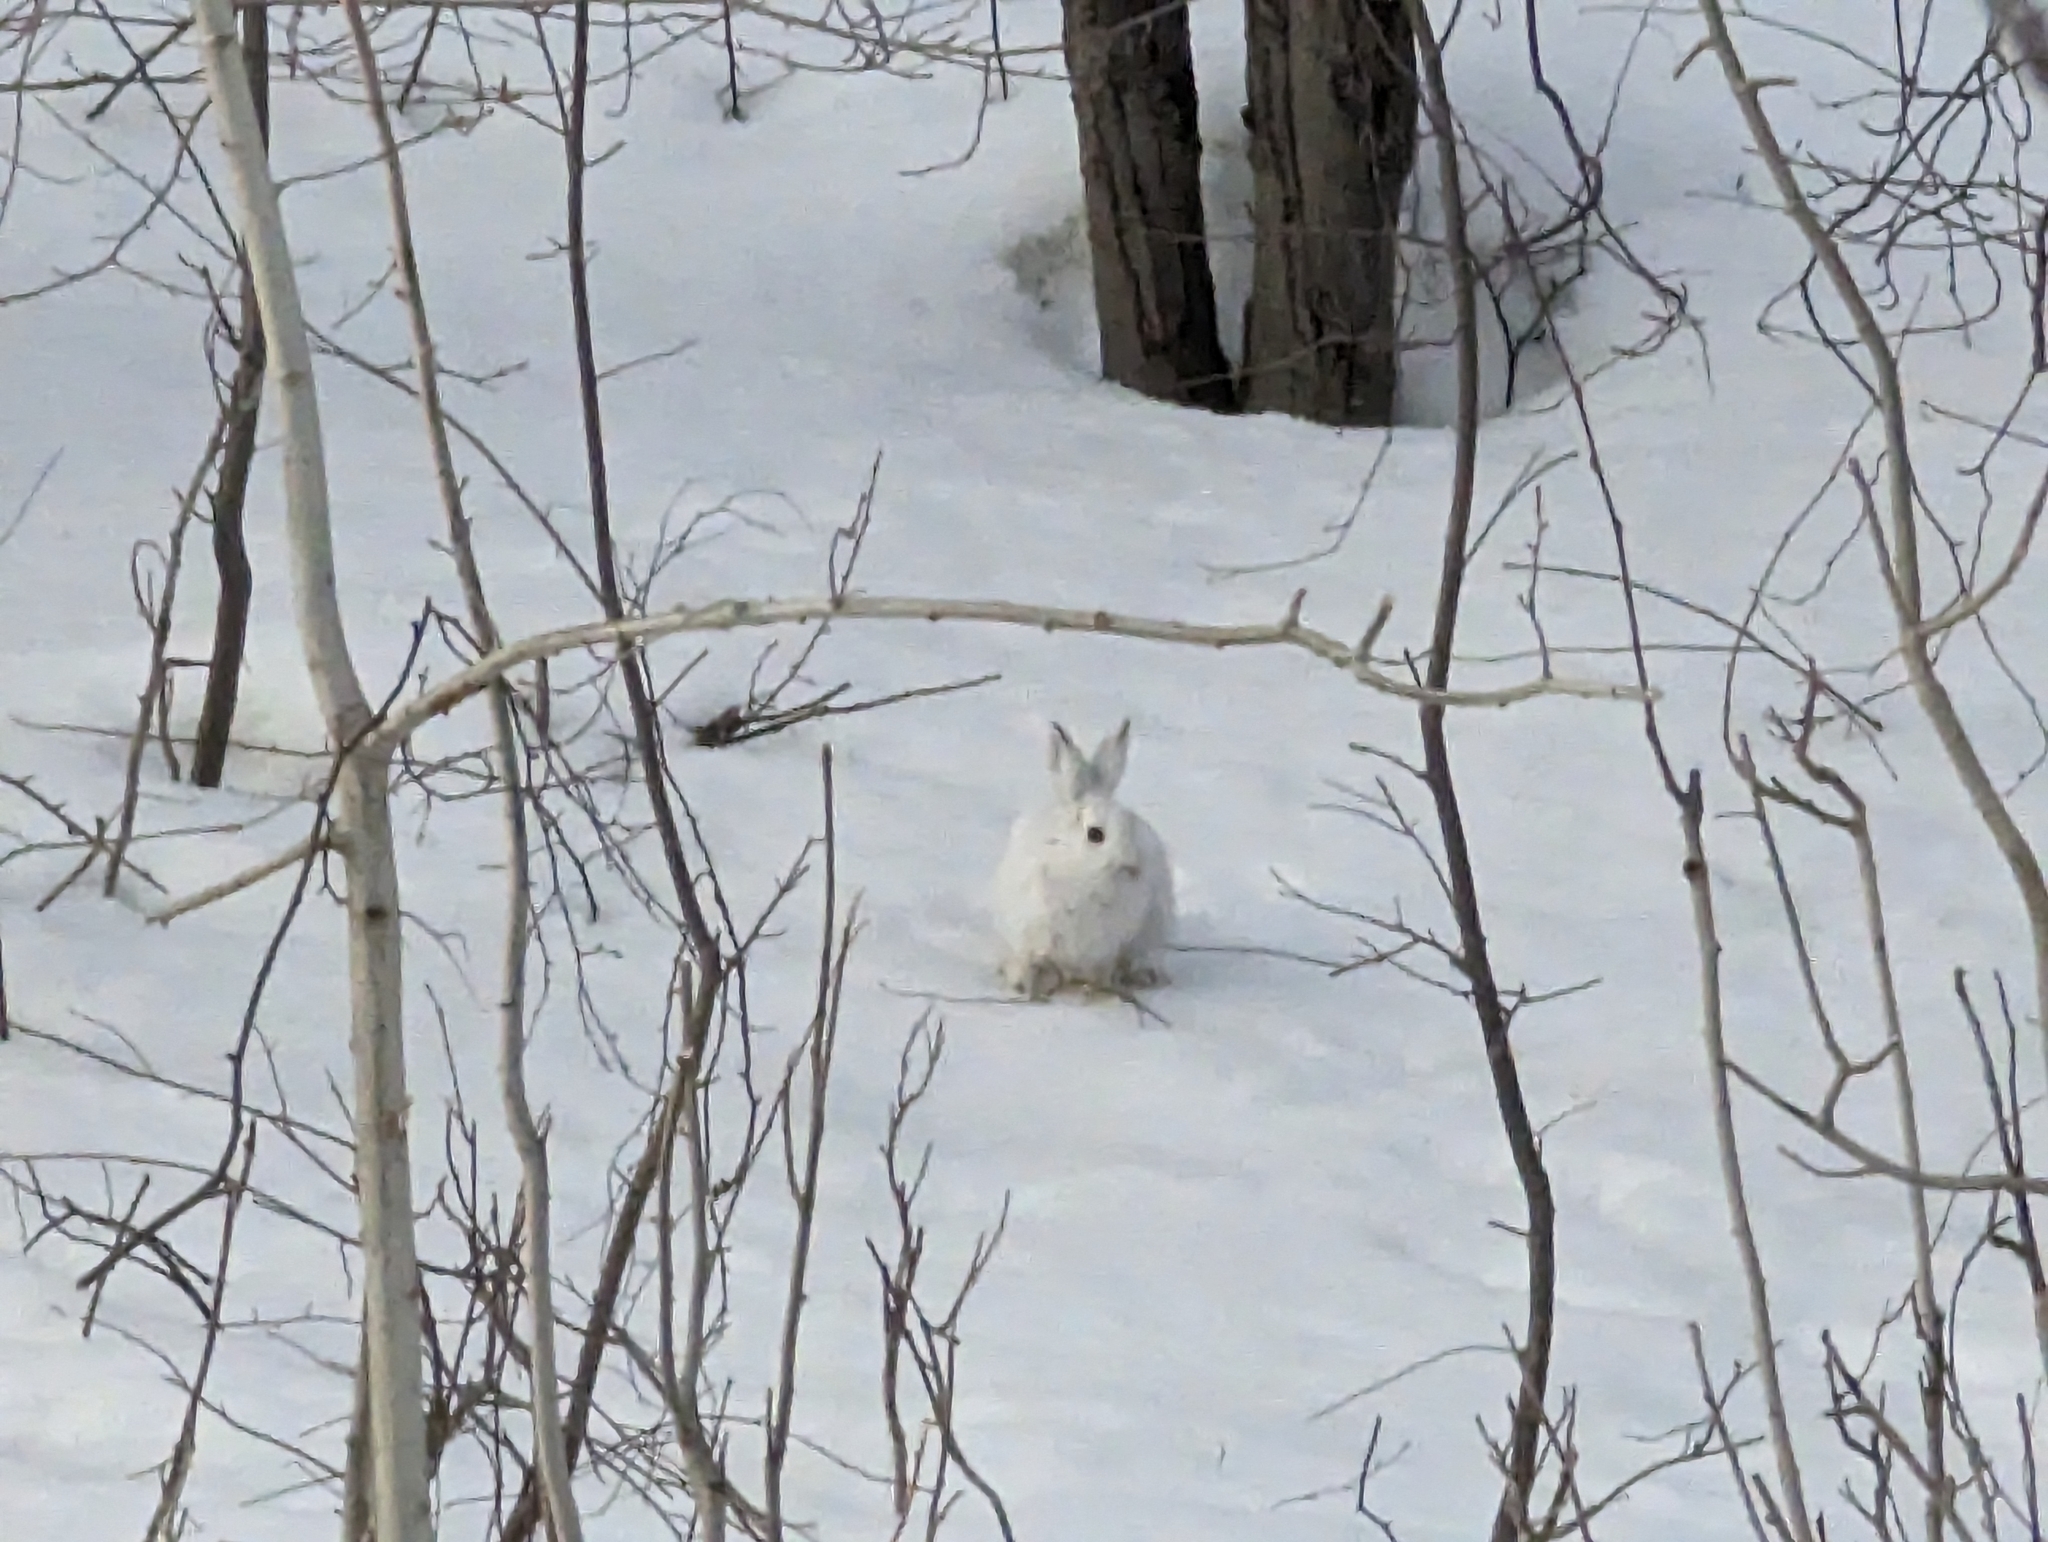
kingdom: Animalia
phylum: Chordata
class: Mammalia
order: Lagomorpha
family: Leporidae
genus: Lepus
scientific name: Lepus americanus
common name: Snowshoe hare
